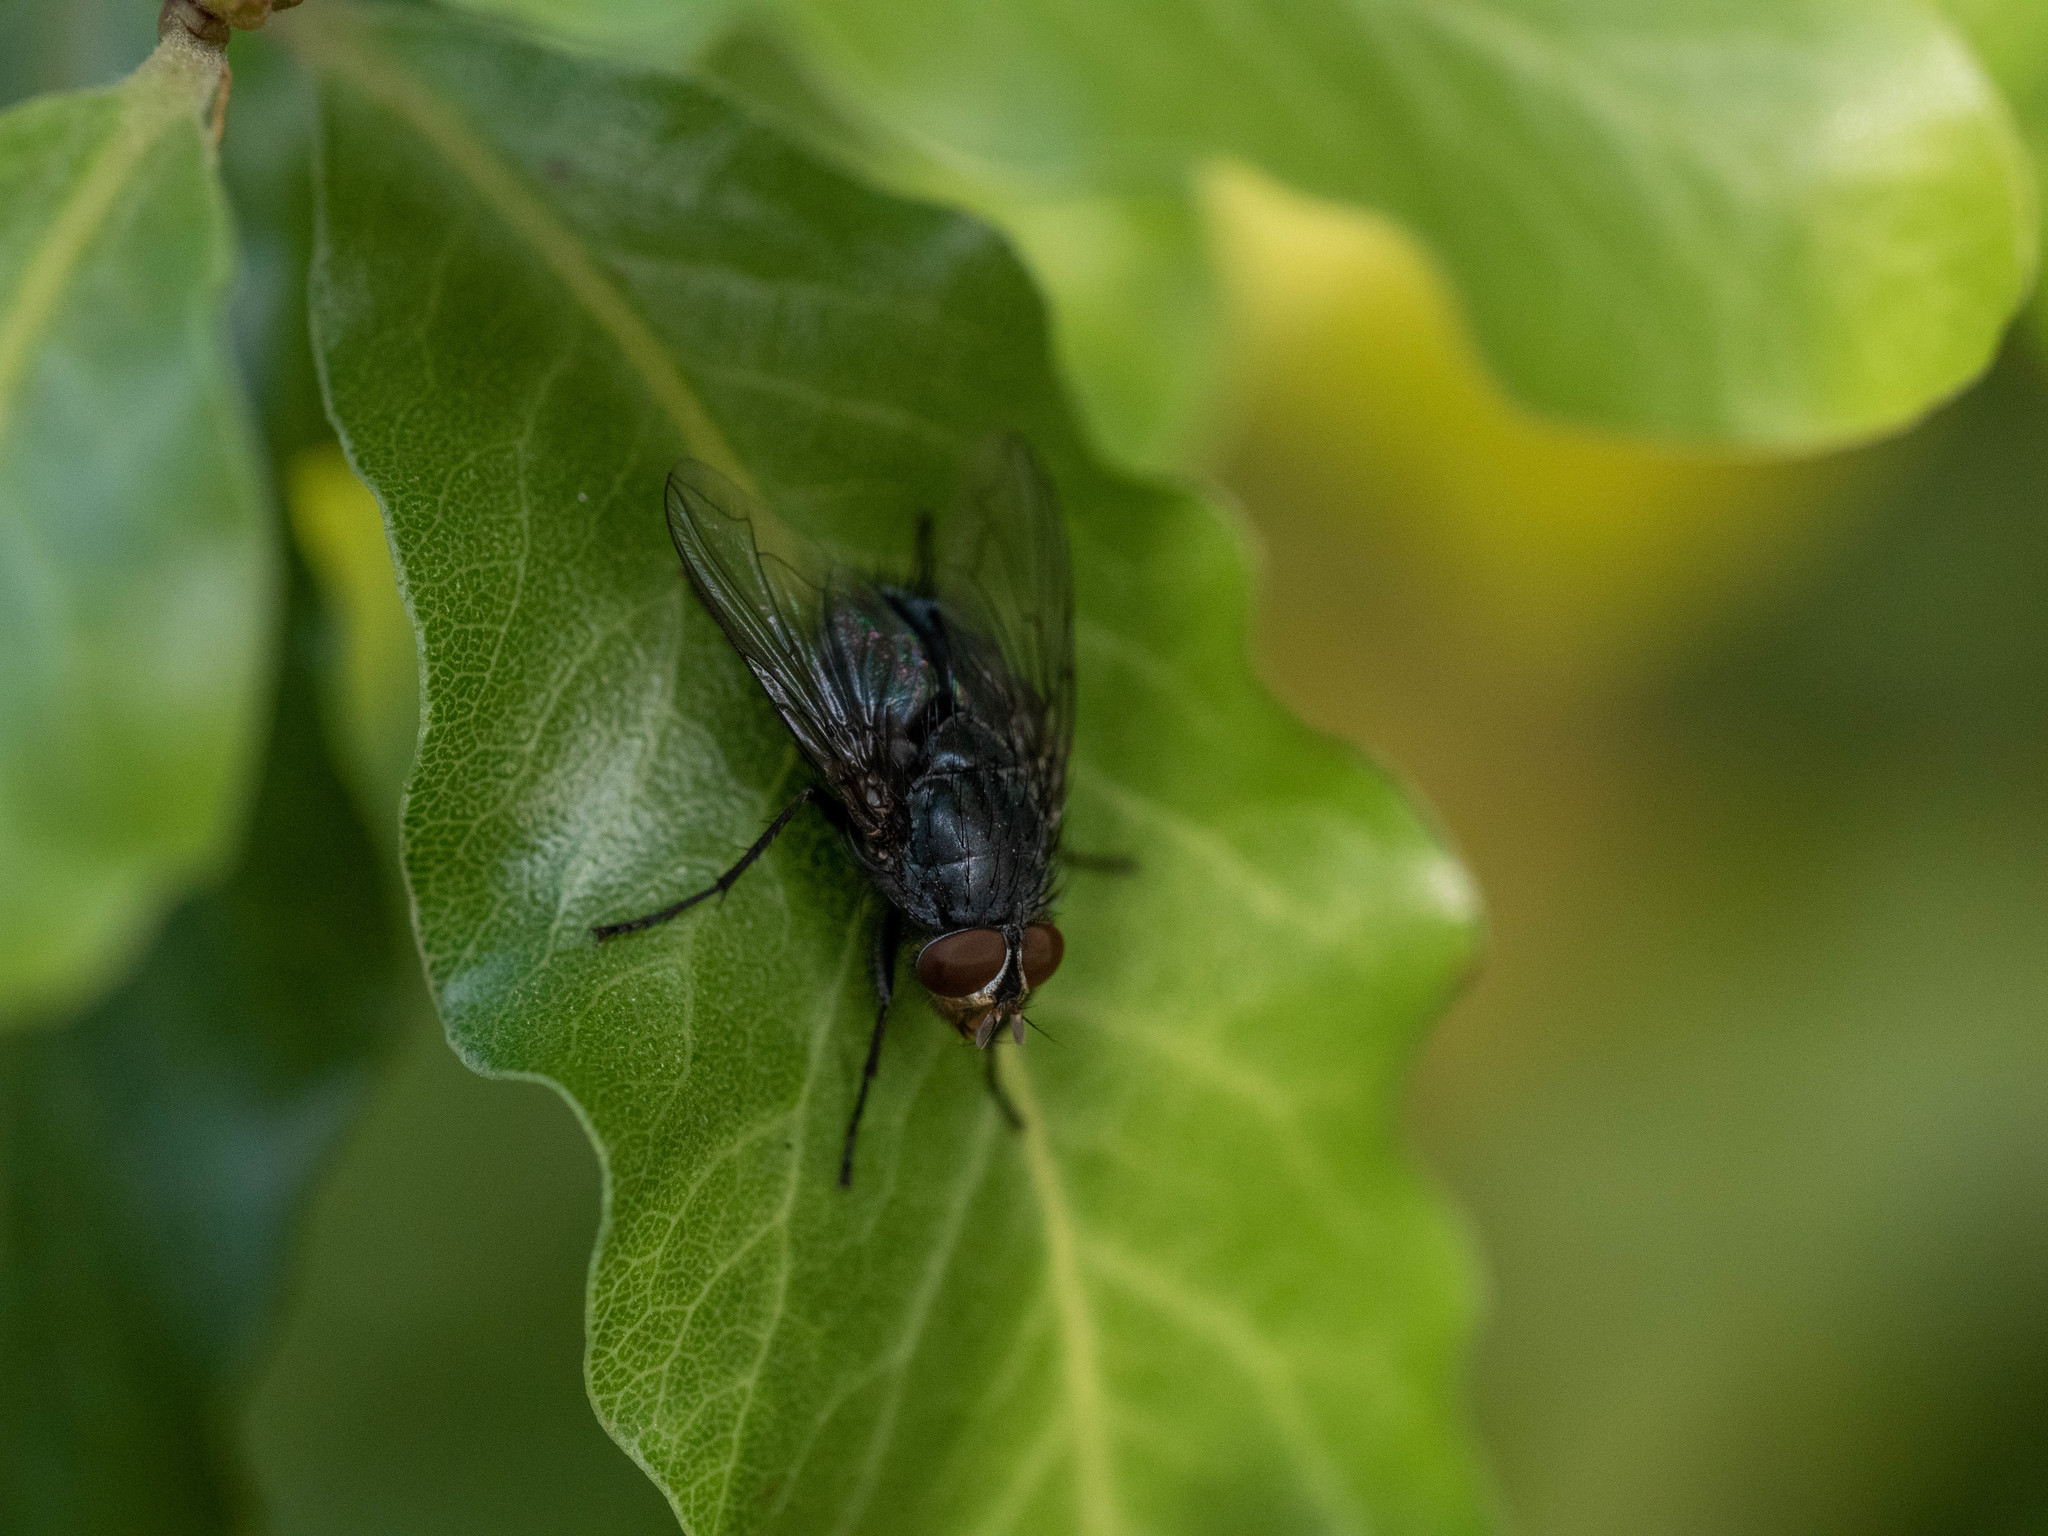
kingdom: Animalia
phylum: Arthropoda
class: Insecta
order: Diptera
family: Calliphoridae
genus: Calliphora
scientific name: Calliphora vicina
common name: Common blow flie
